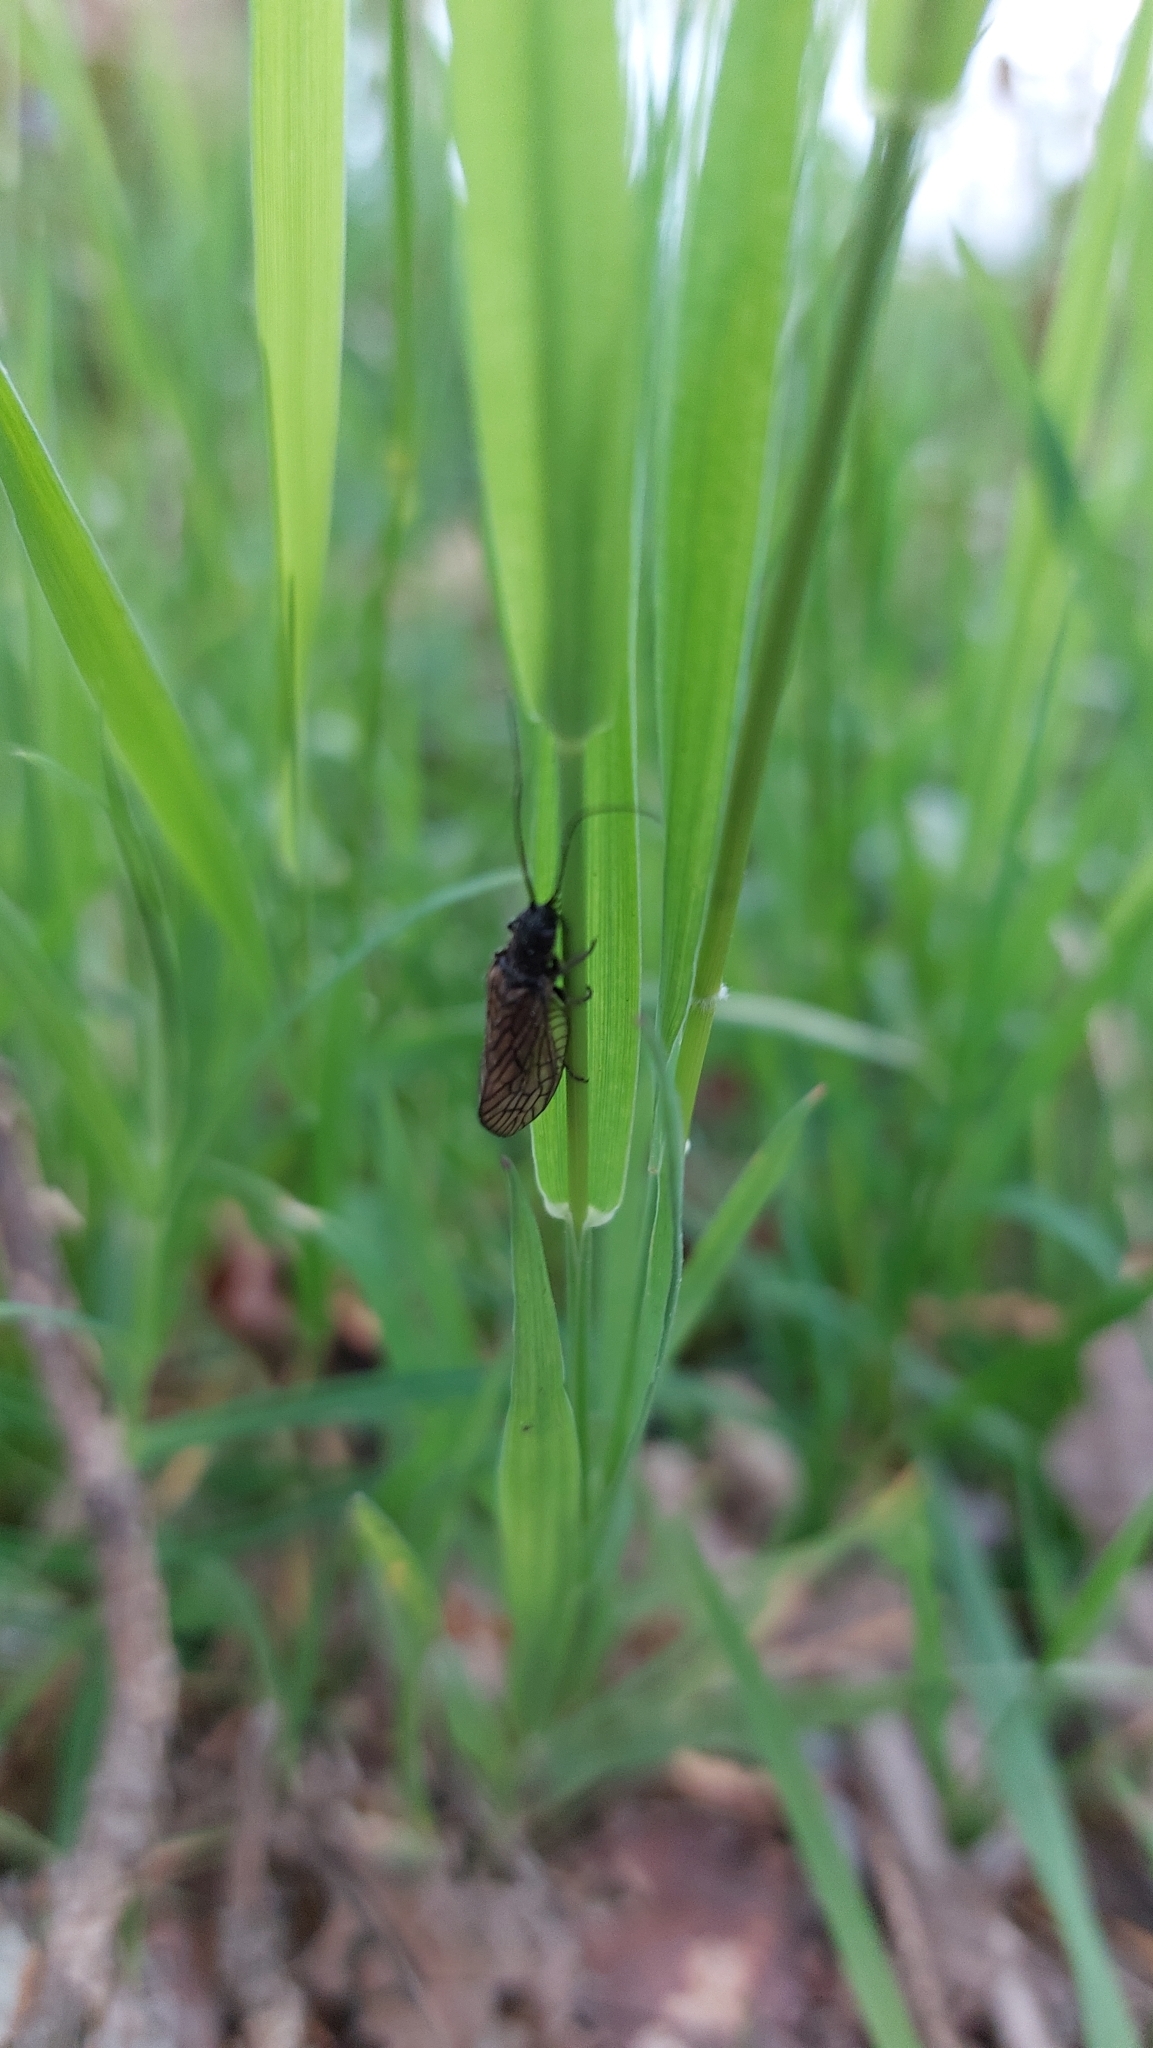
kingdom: Animalia
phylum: Arthropoda
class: Insecta
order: Megaloptera
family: Sialidae
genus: Sialis
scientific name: Sialis
